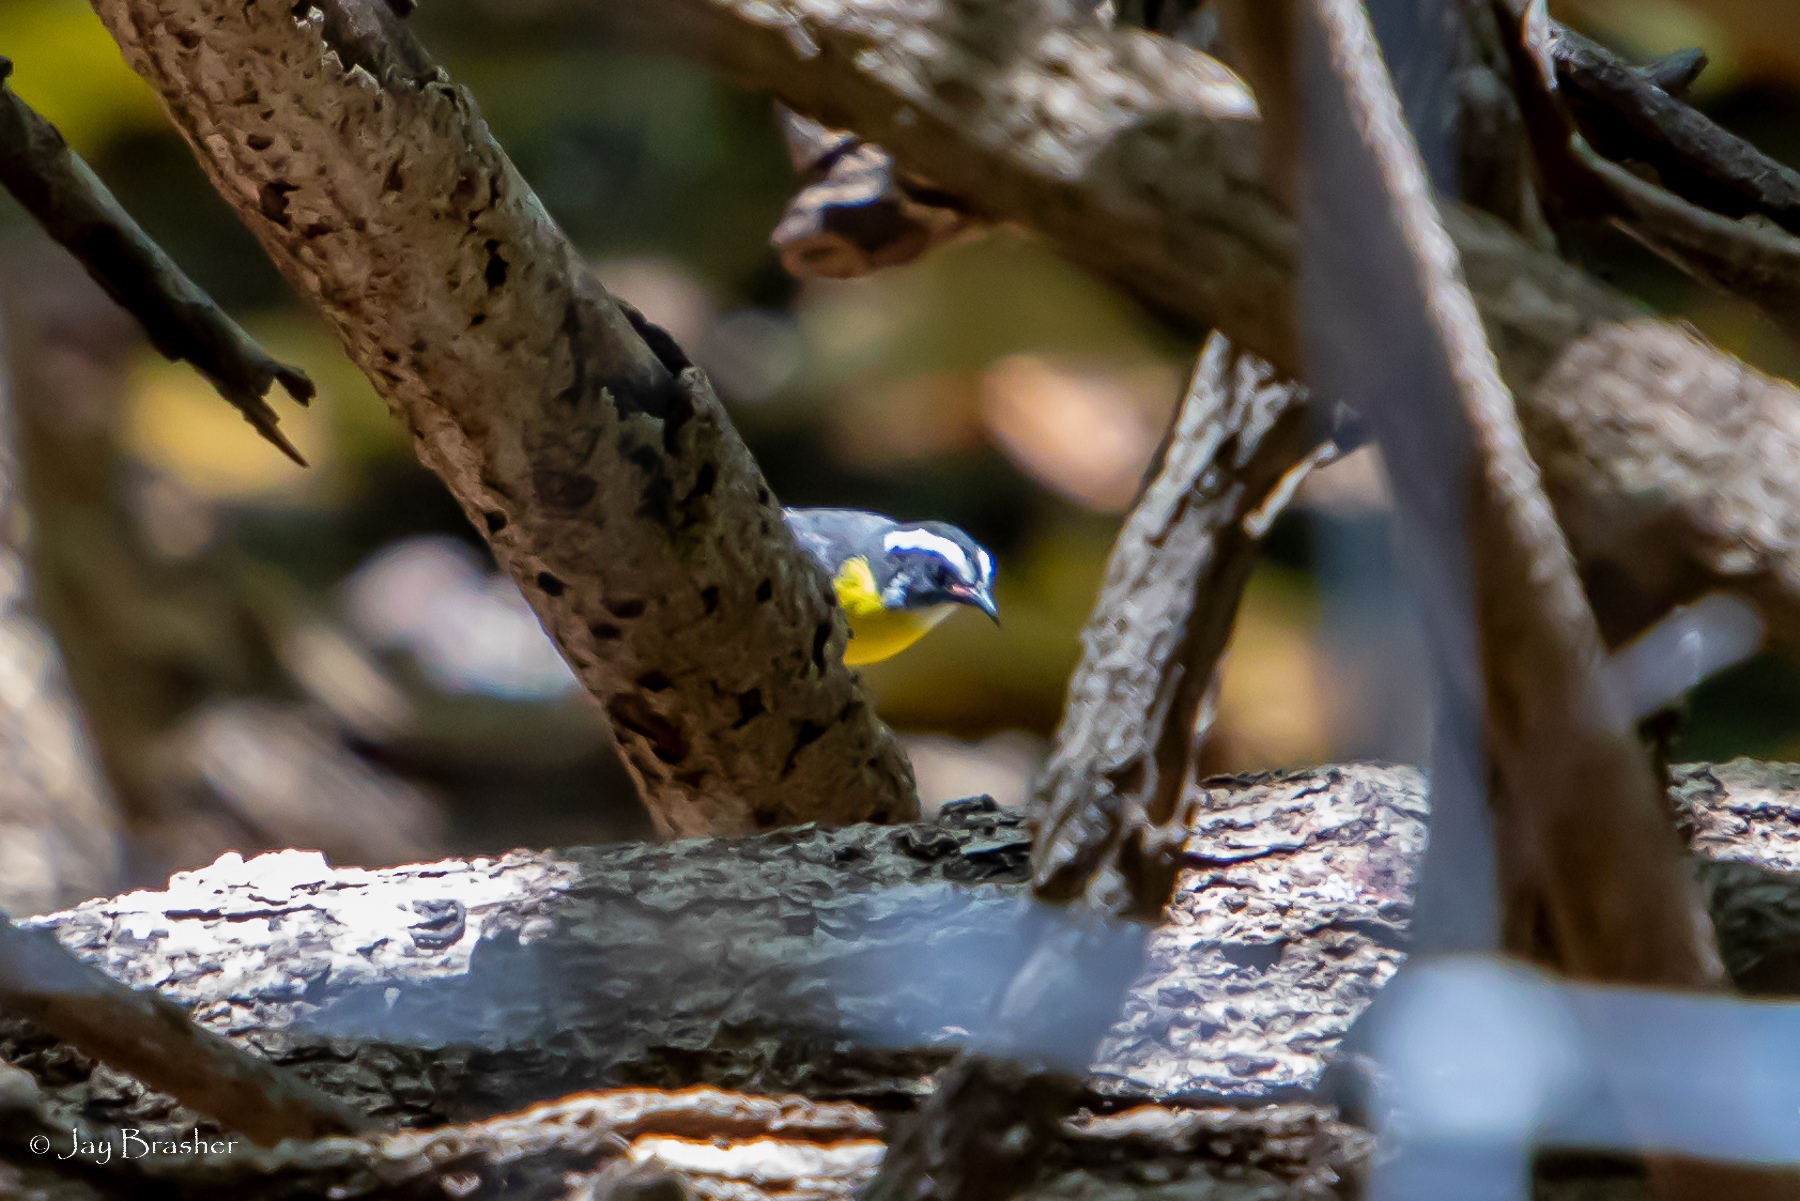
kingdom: Animalia
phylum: Chordata
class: Aves
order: Passeriformes
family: Thraupidae
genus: Coereba
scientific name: Coereba flaveola
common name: Bananaquit
